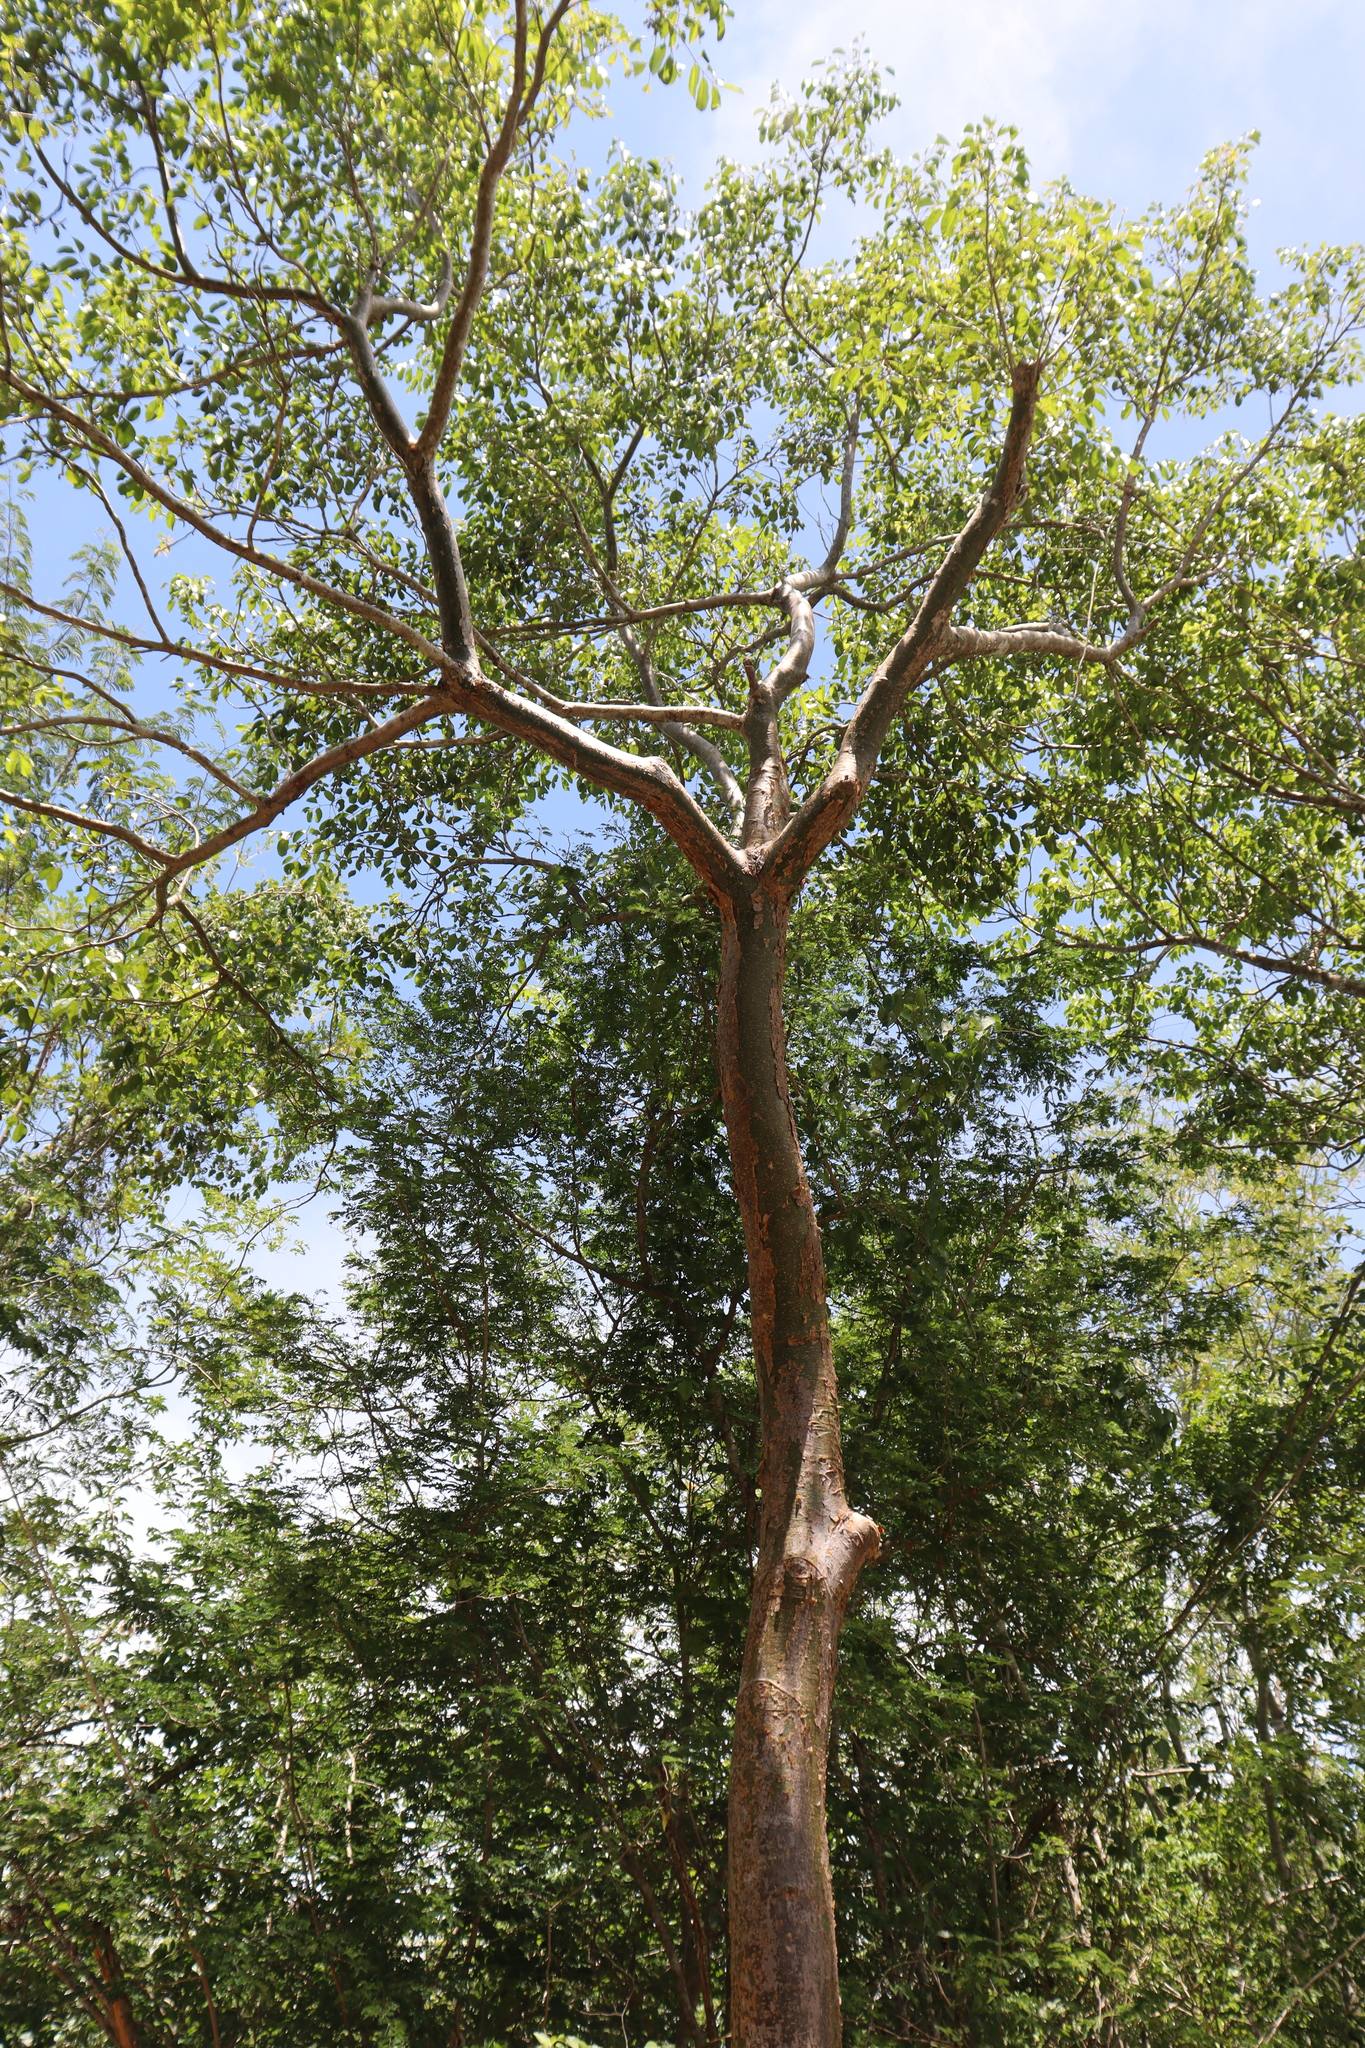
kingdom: Plantae
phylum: Tracheophyta
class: Magnoliopsida
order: Sapindales
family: Burseraceae
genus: Bursera
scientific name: Bursera simaruba
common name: Turpentine tree
